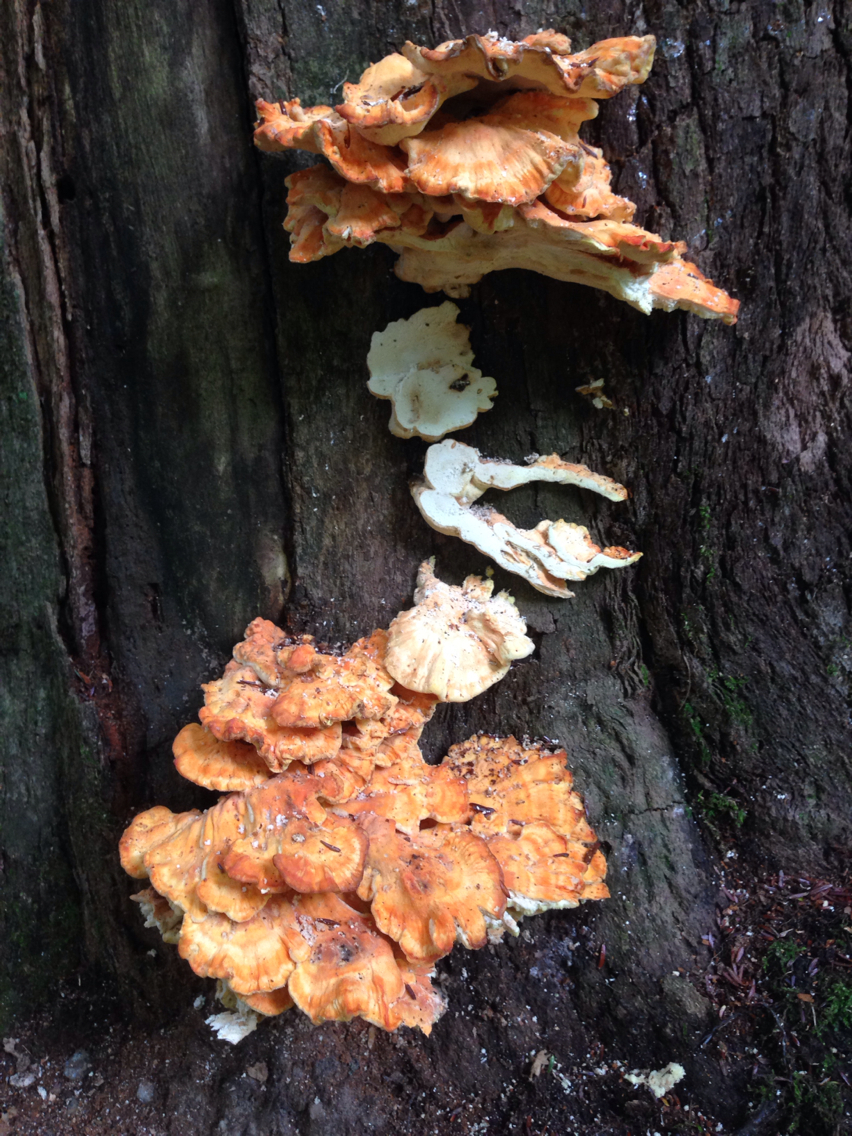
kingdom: Fungi
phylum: Basidiomycota
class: Agaricomycetes
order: Polyporales
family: Laetiporaceae
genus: Laetiporus
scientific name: Laetiporus sulphureus
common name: Chicken of the woods
